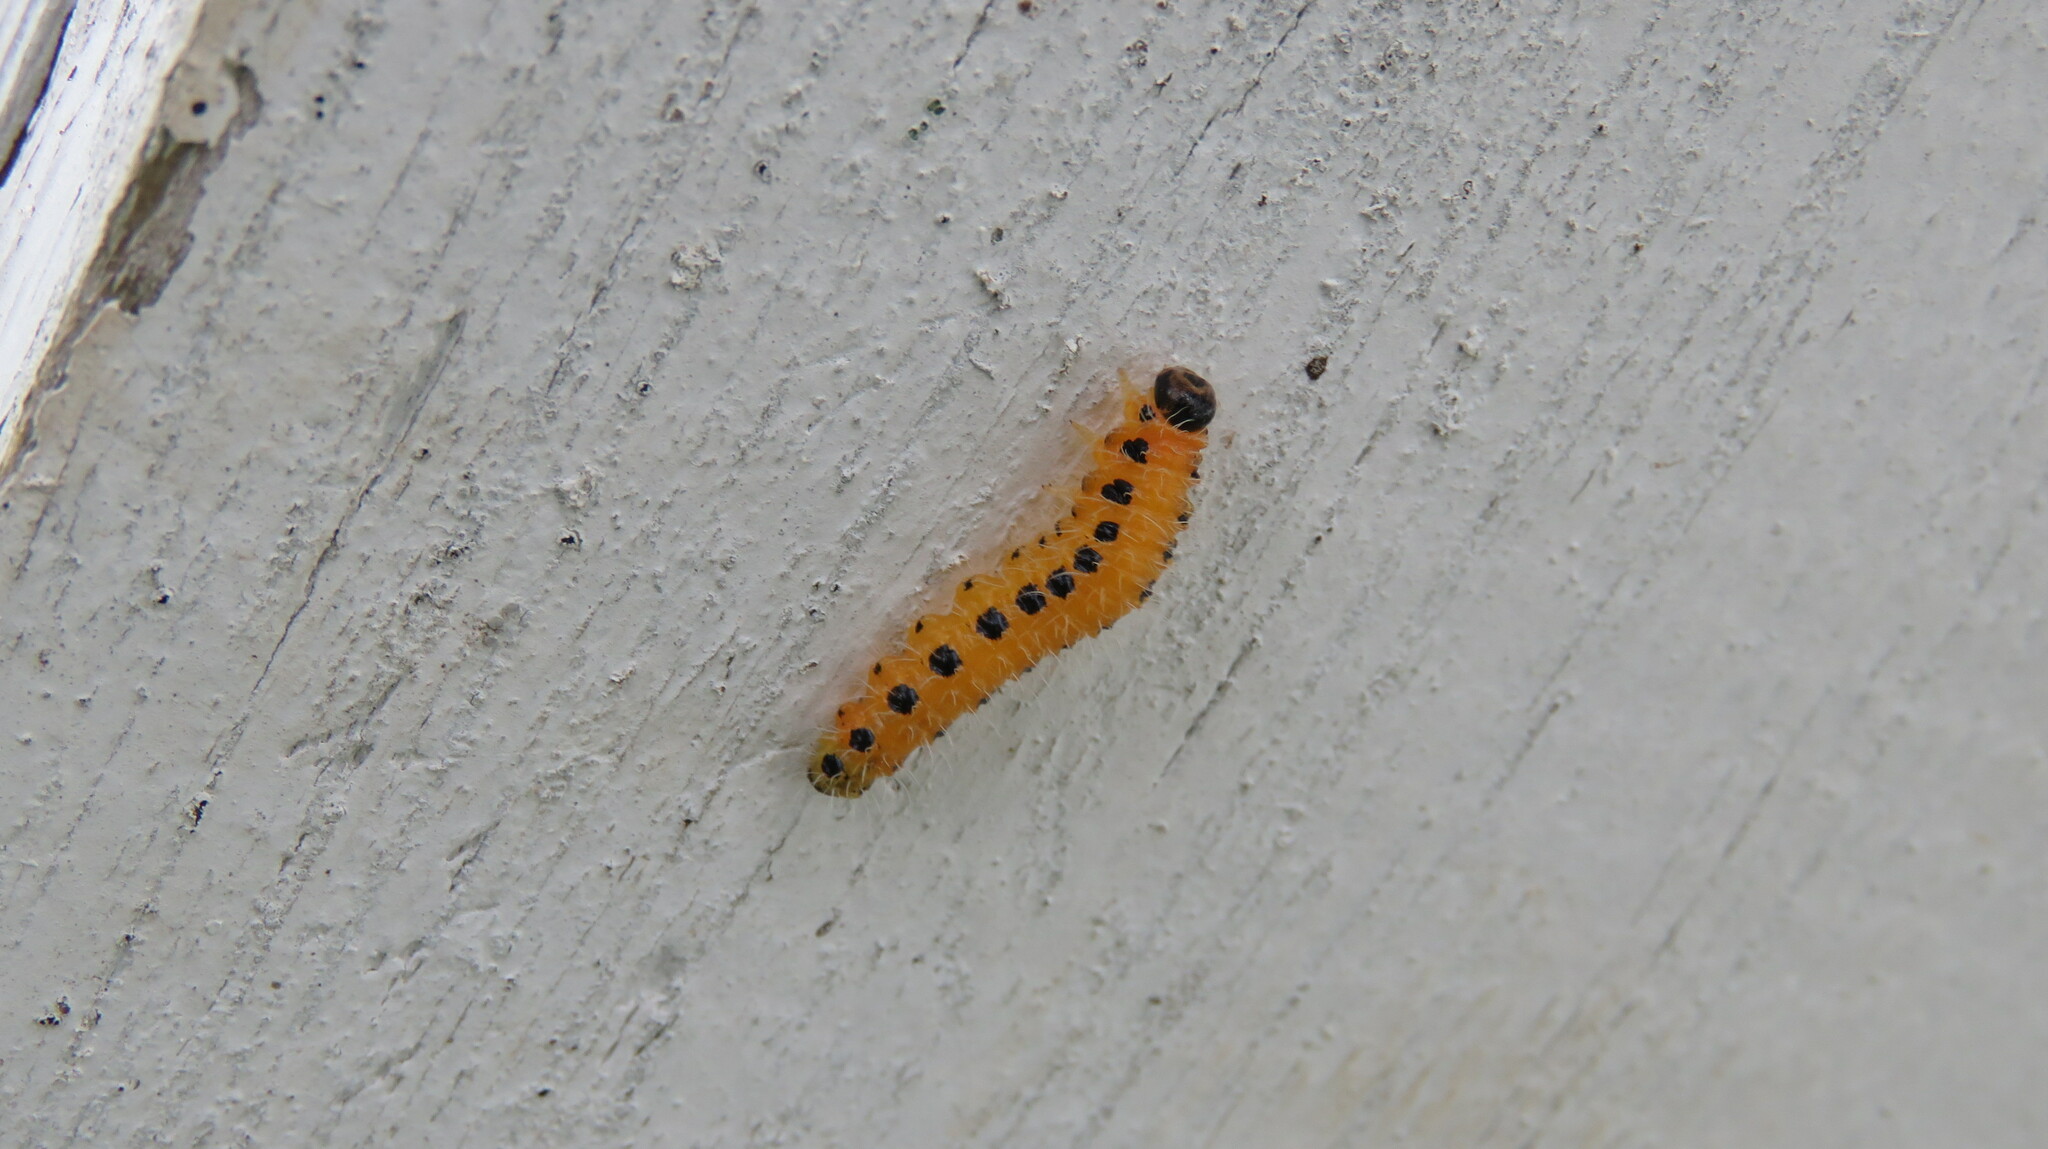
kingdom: Animalia
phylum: Arthropoda
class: Insecta
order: Hymenoptera
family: Tenthredinidae
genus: Cladius
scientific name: Cladius grandis
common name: Common sawfly
